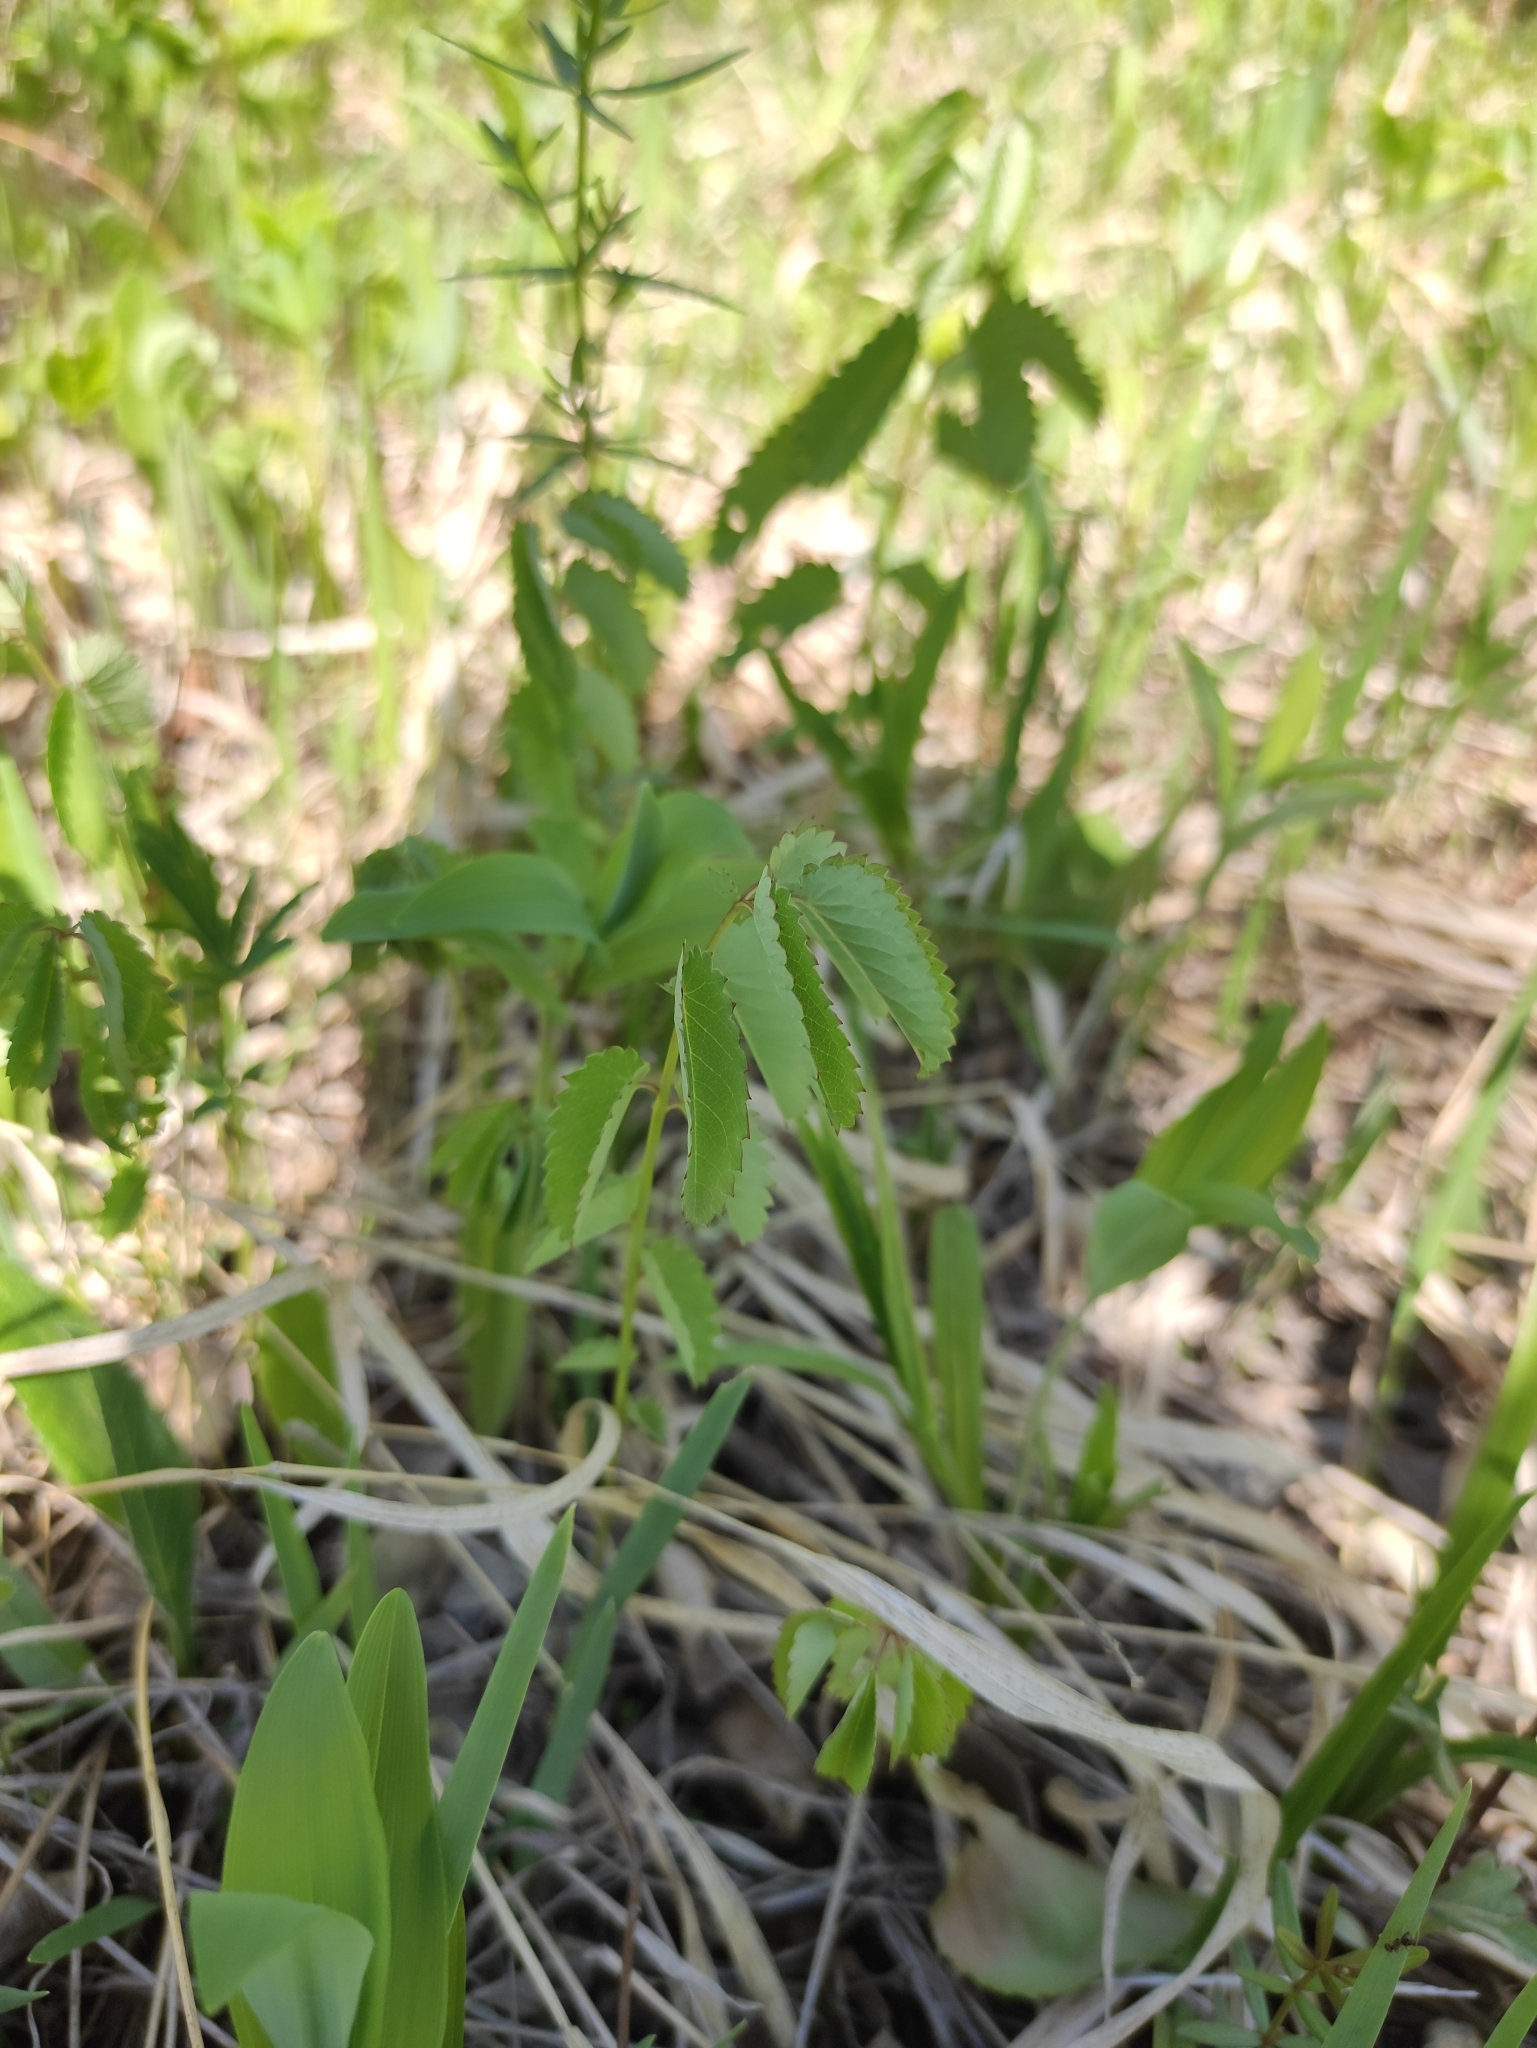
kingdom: Plantae
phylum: Tracheophyta
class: Magnoliopsida
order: Rosales
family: Rosaceae
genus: Sanguisorba
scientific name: Sanguisorba officinalis
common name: Great burnet
